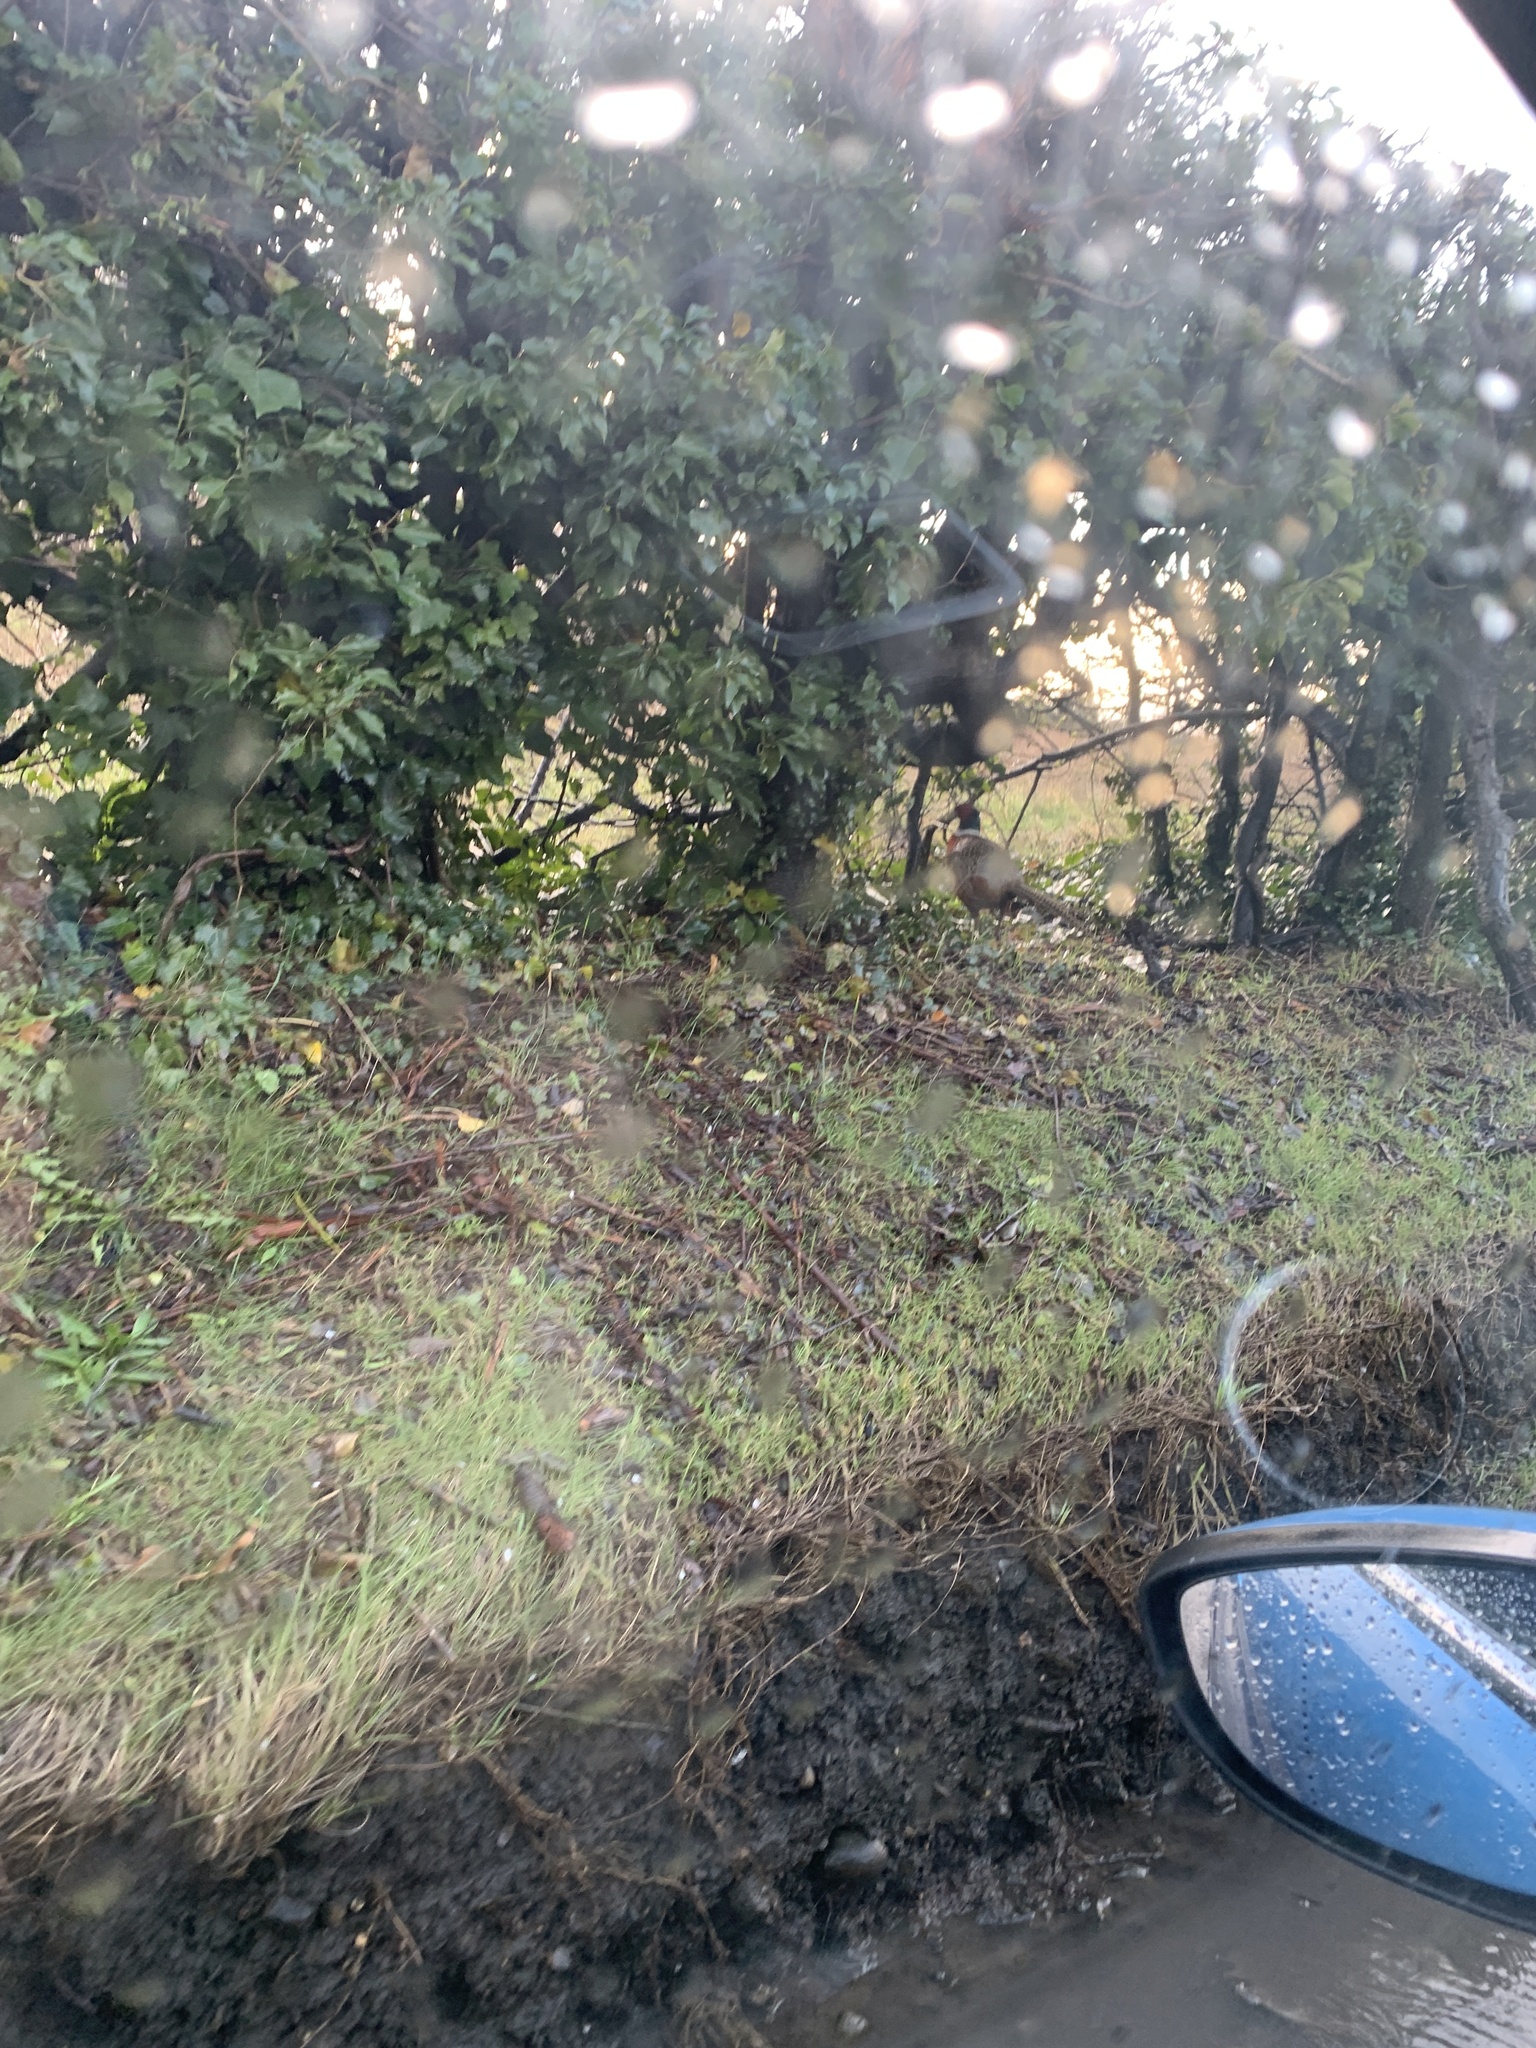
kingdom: Animalia
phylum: Chordata
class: Aves
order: Galliformes
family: Phasianidae
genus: Phasianus
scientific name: Phasianus colchicus
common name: Common pheasant
